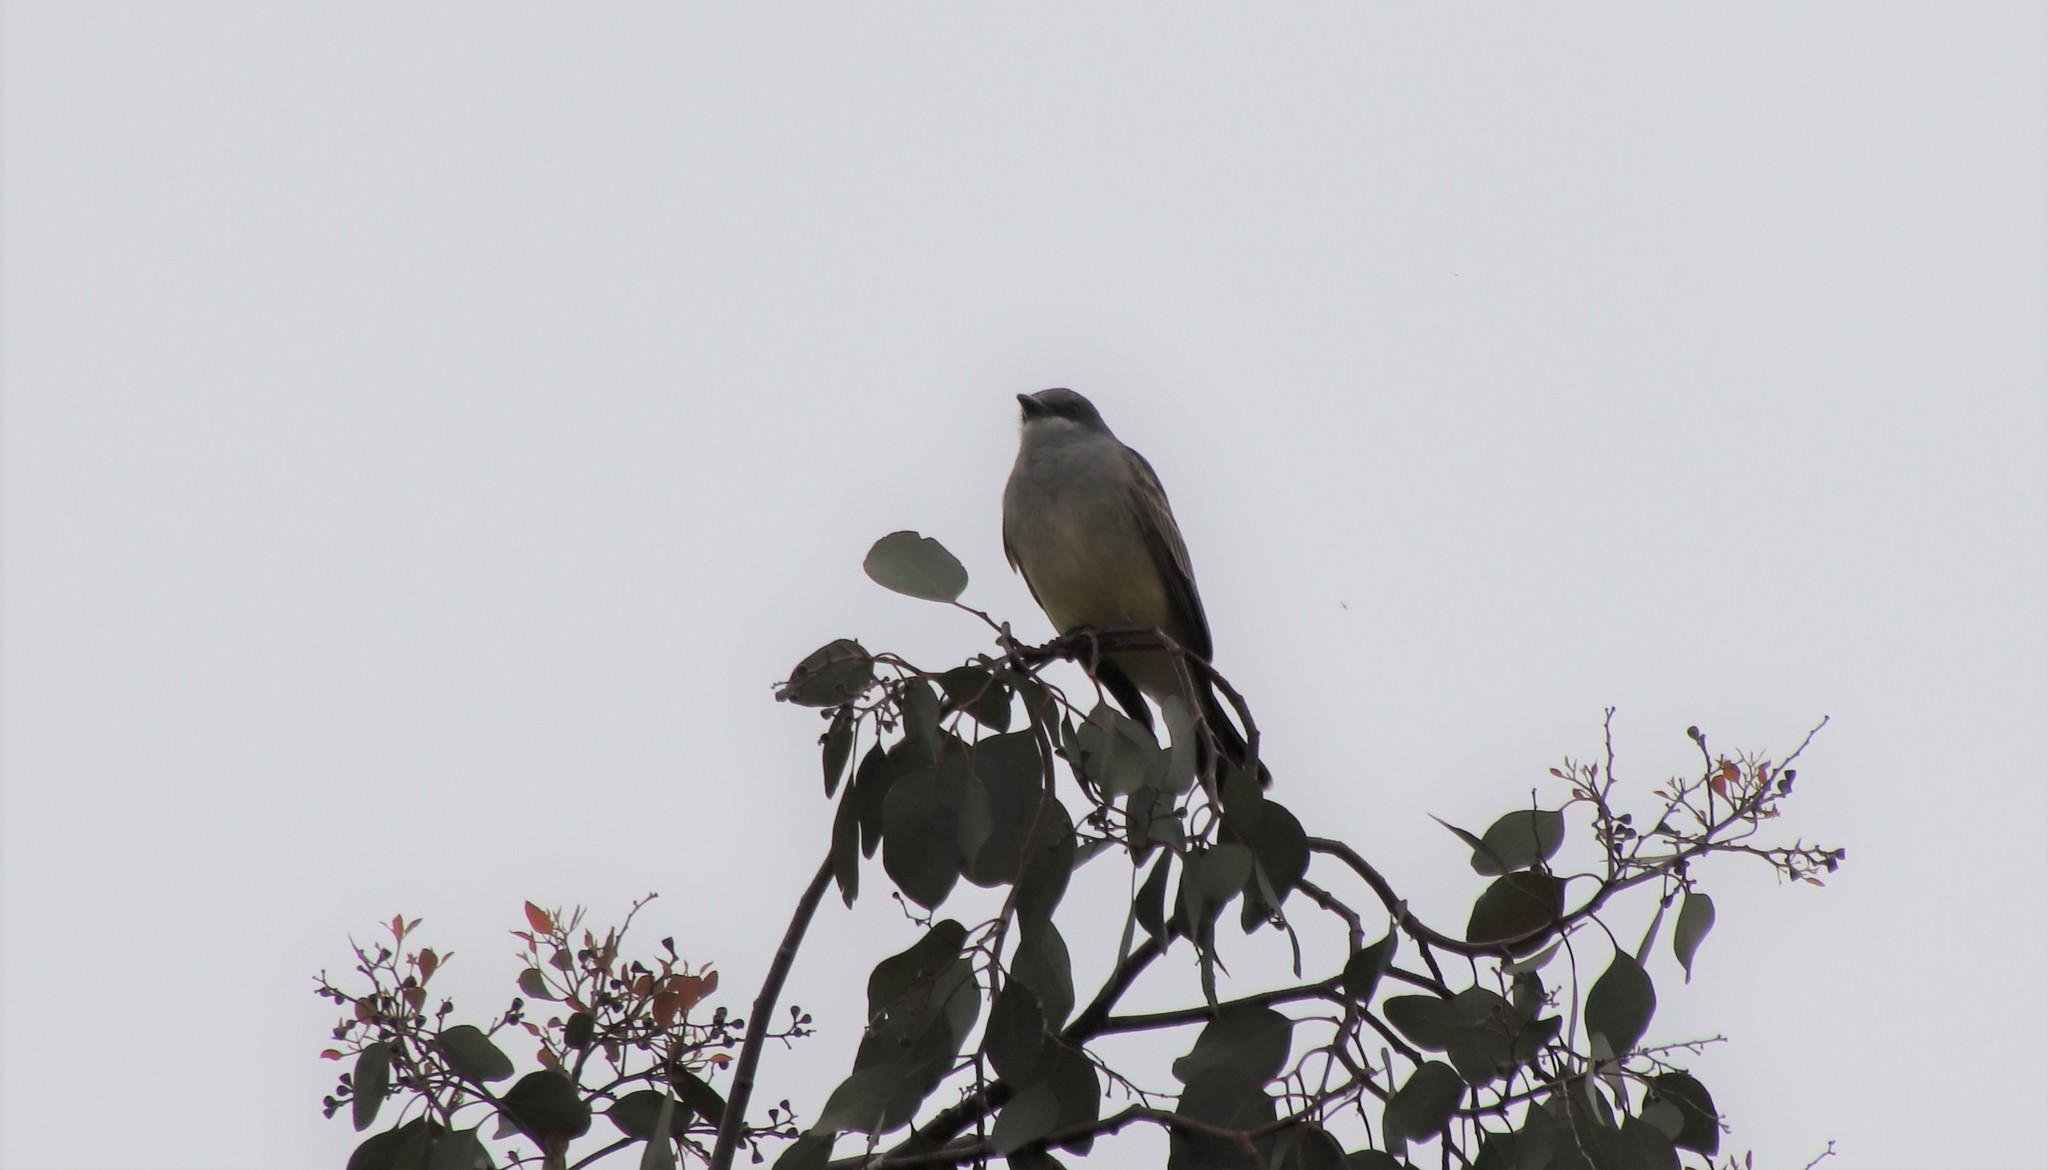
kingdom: Animalia
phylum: Chordata
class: Aves
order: Passeriformes
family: Tyrannidae
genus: Tyrannus
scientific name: Tyrannus vociferans
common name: Cassin's kingbird
